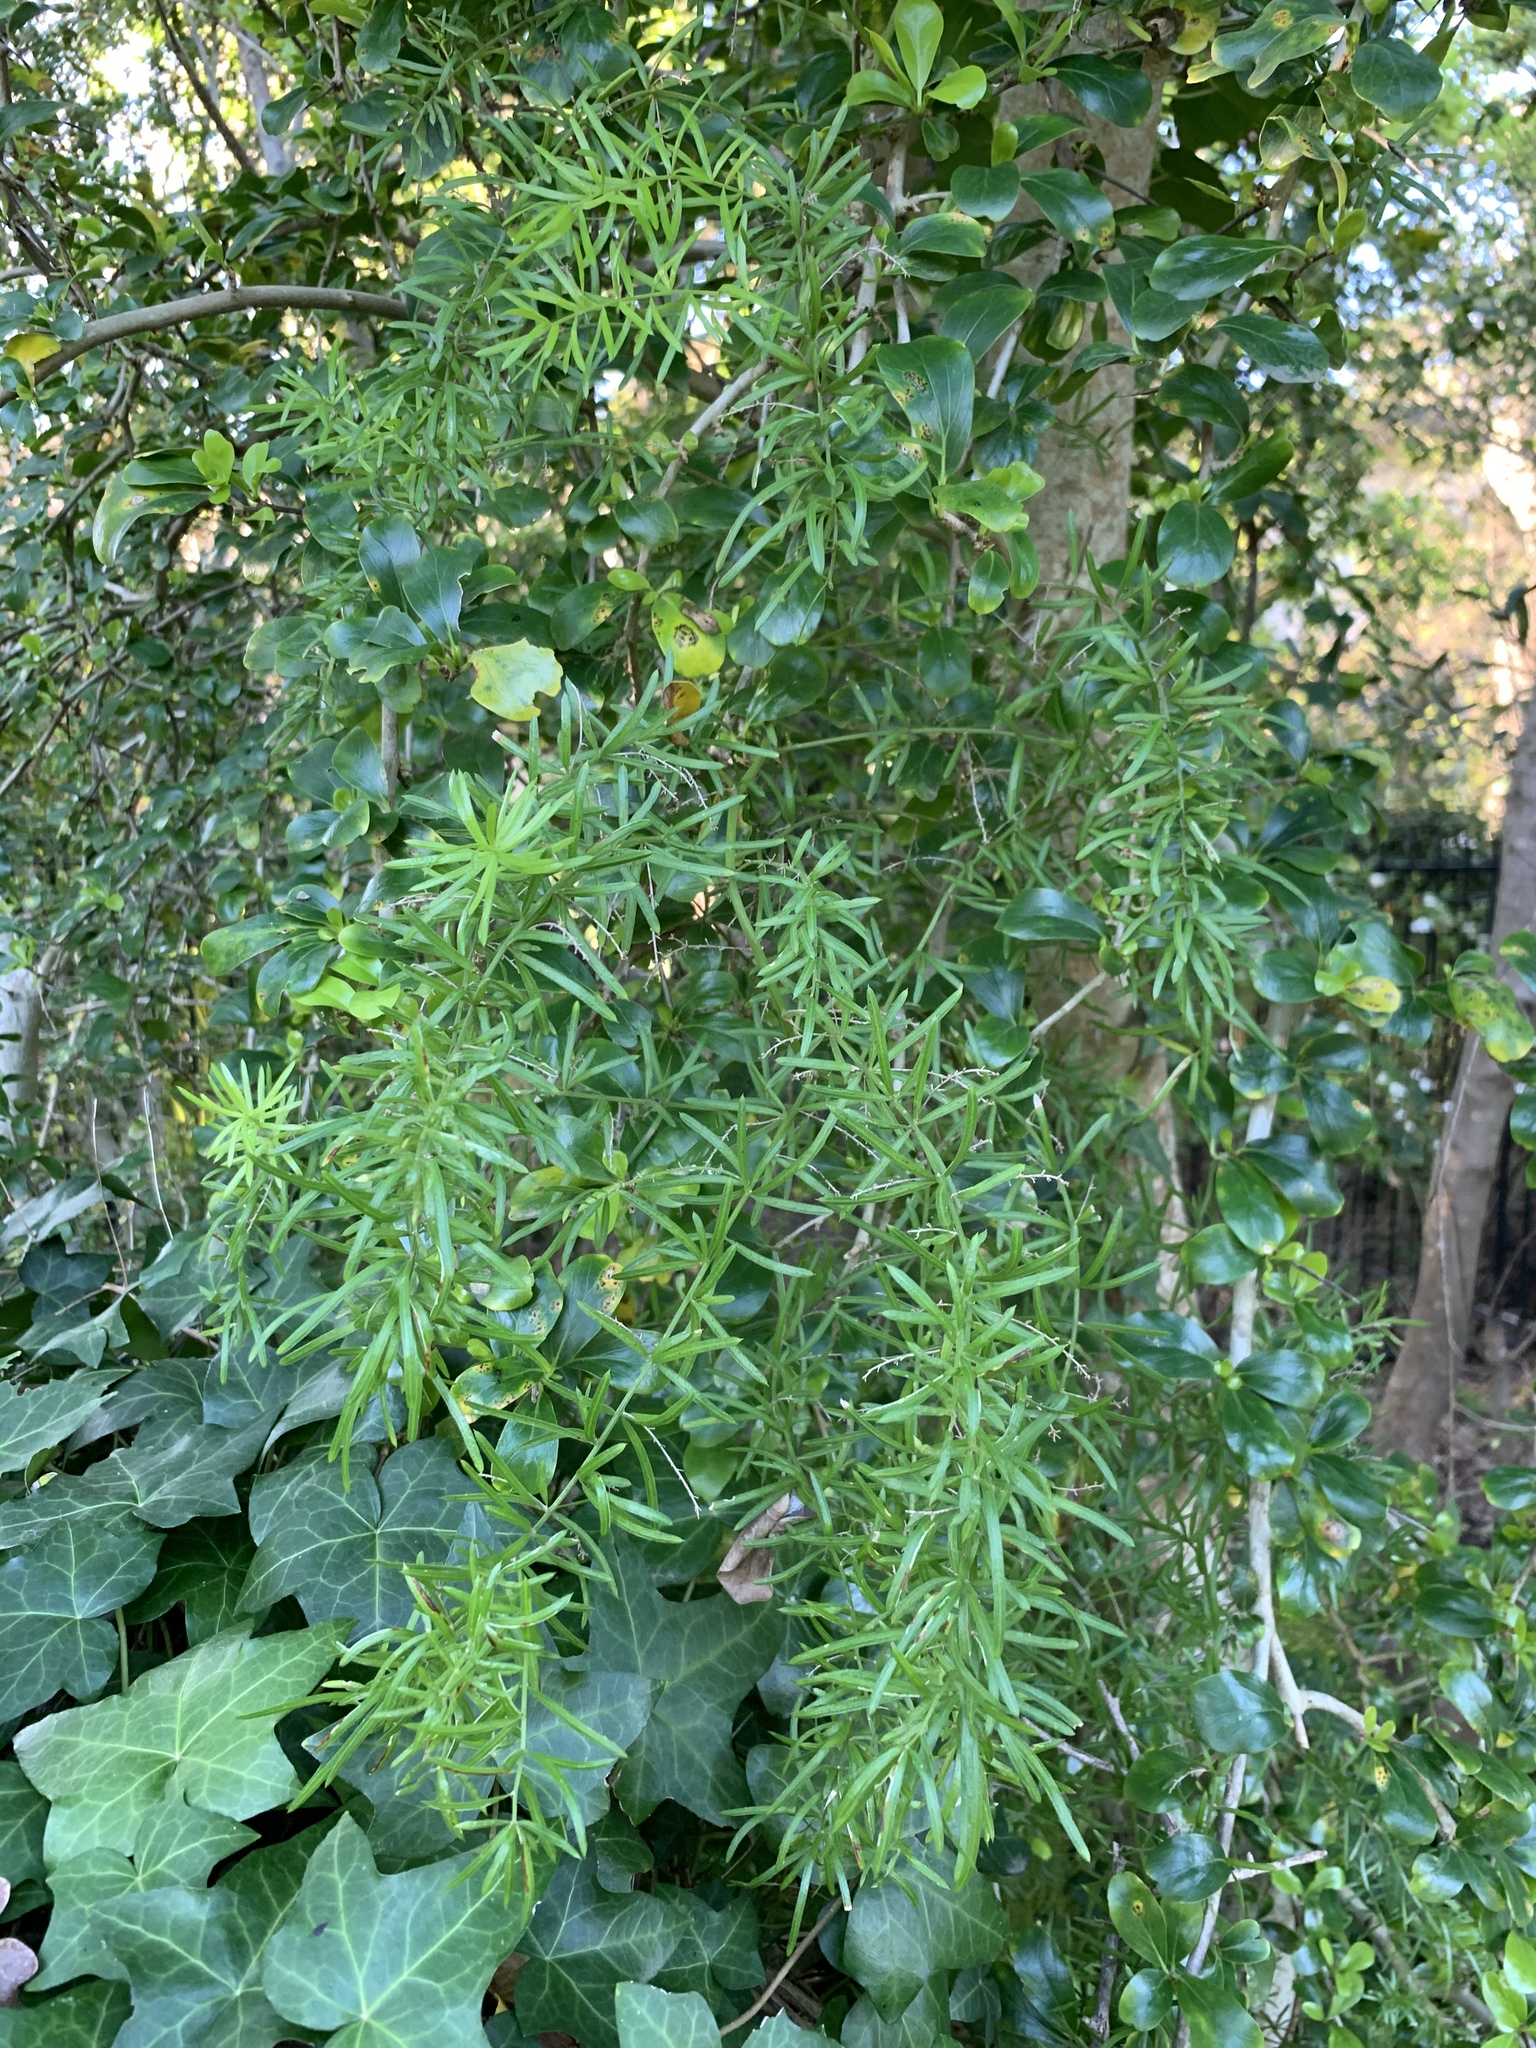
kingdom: Plantae
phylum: Tracheophyta
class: Liliopsida
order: Asparagales
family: Asparagaceae
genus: Asparagus
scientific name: Asparagus aethiopicus
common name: Sprenger's asparagus fern
